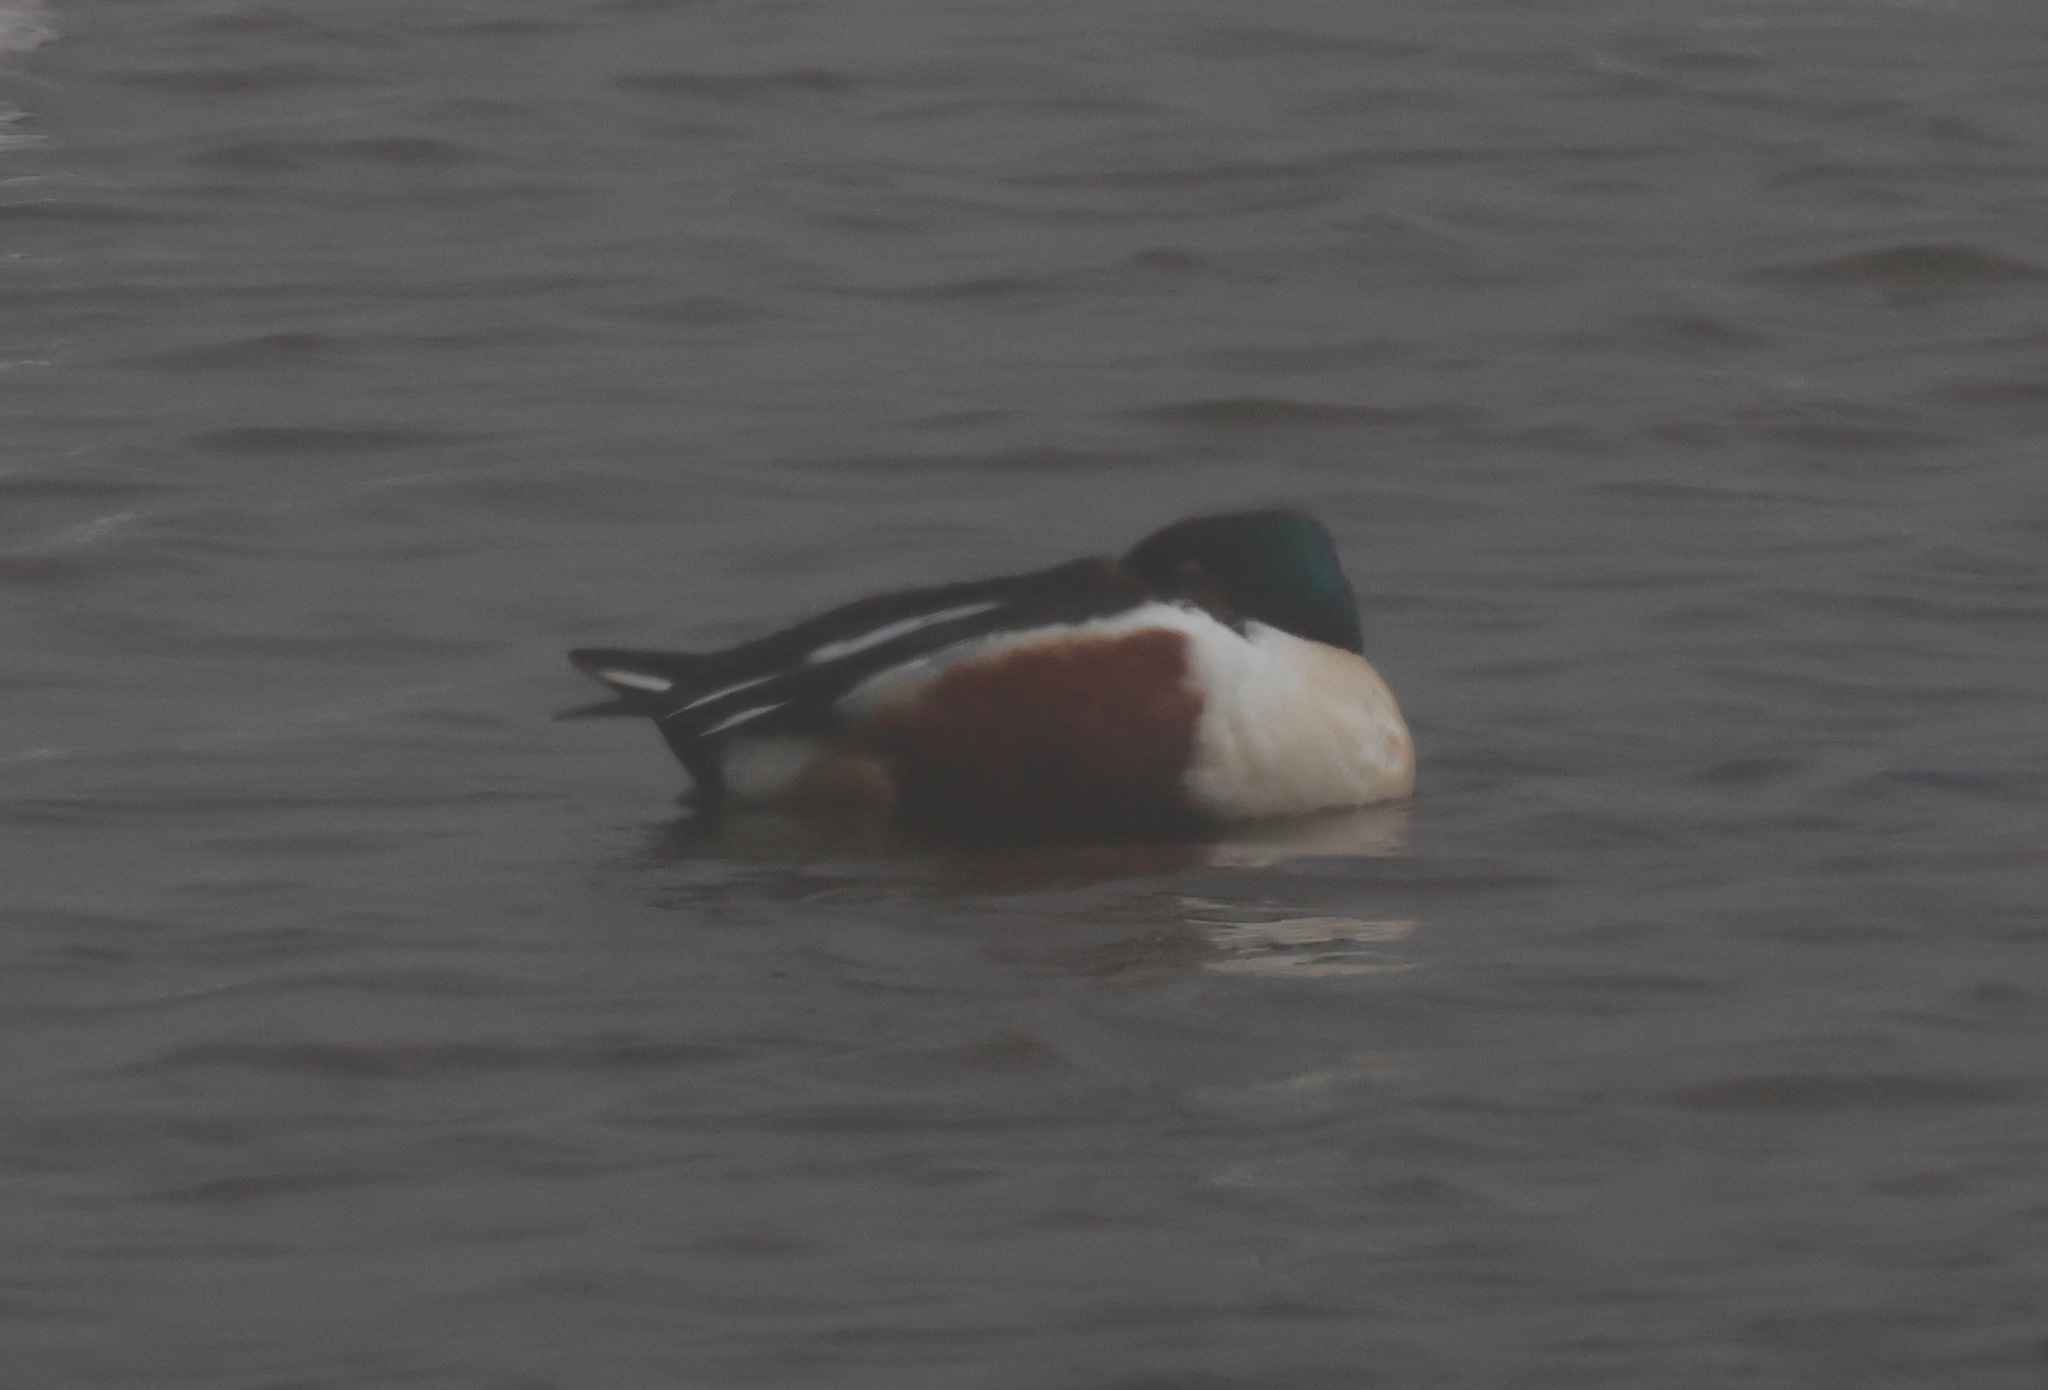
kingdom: Animalia
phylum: Chordata
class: Aves
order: Anseriformes
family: Anatidae
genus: Spatula
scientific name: Spatula clypeata
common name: Northern shoveler
